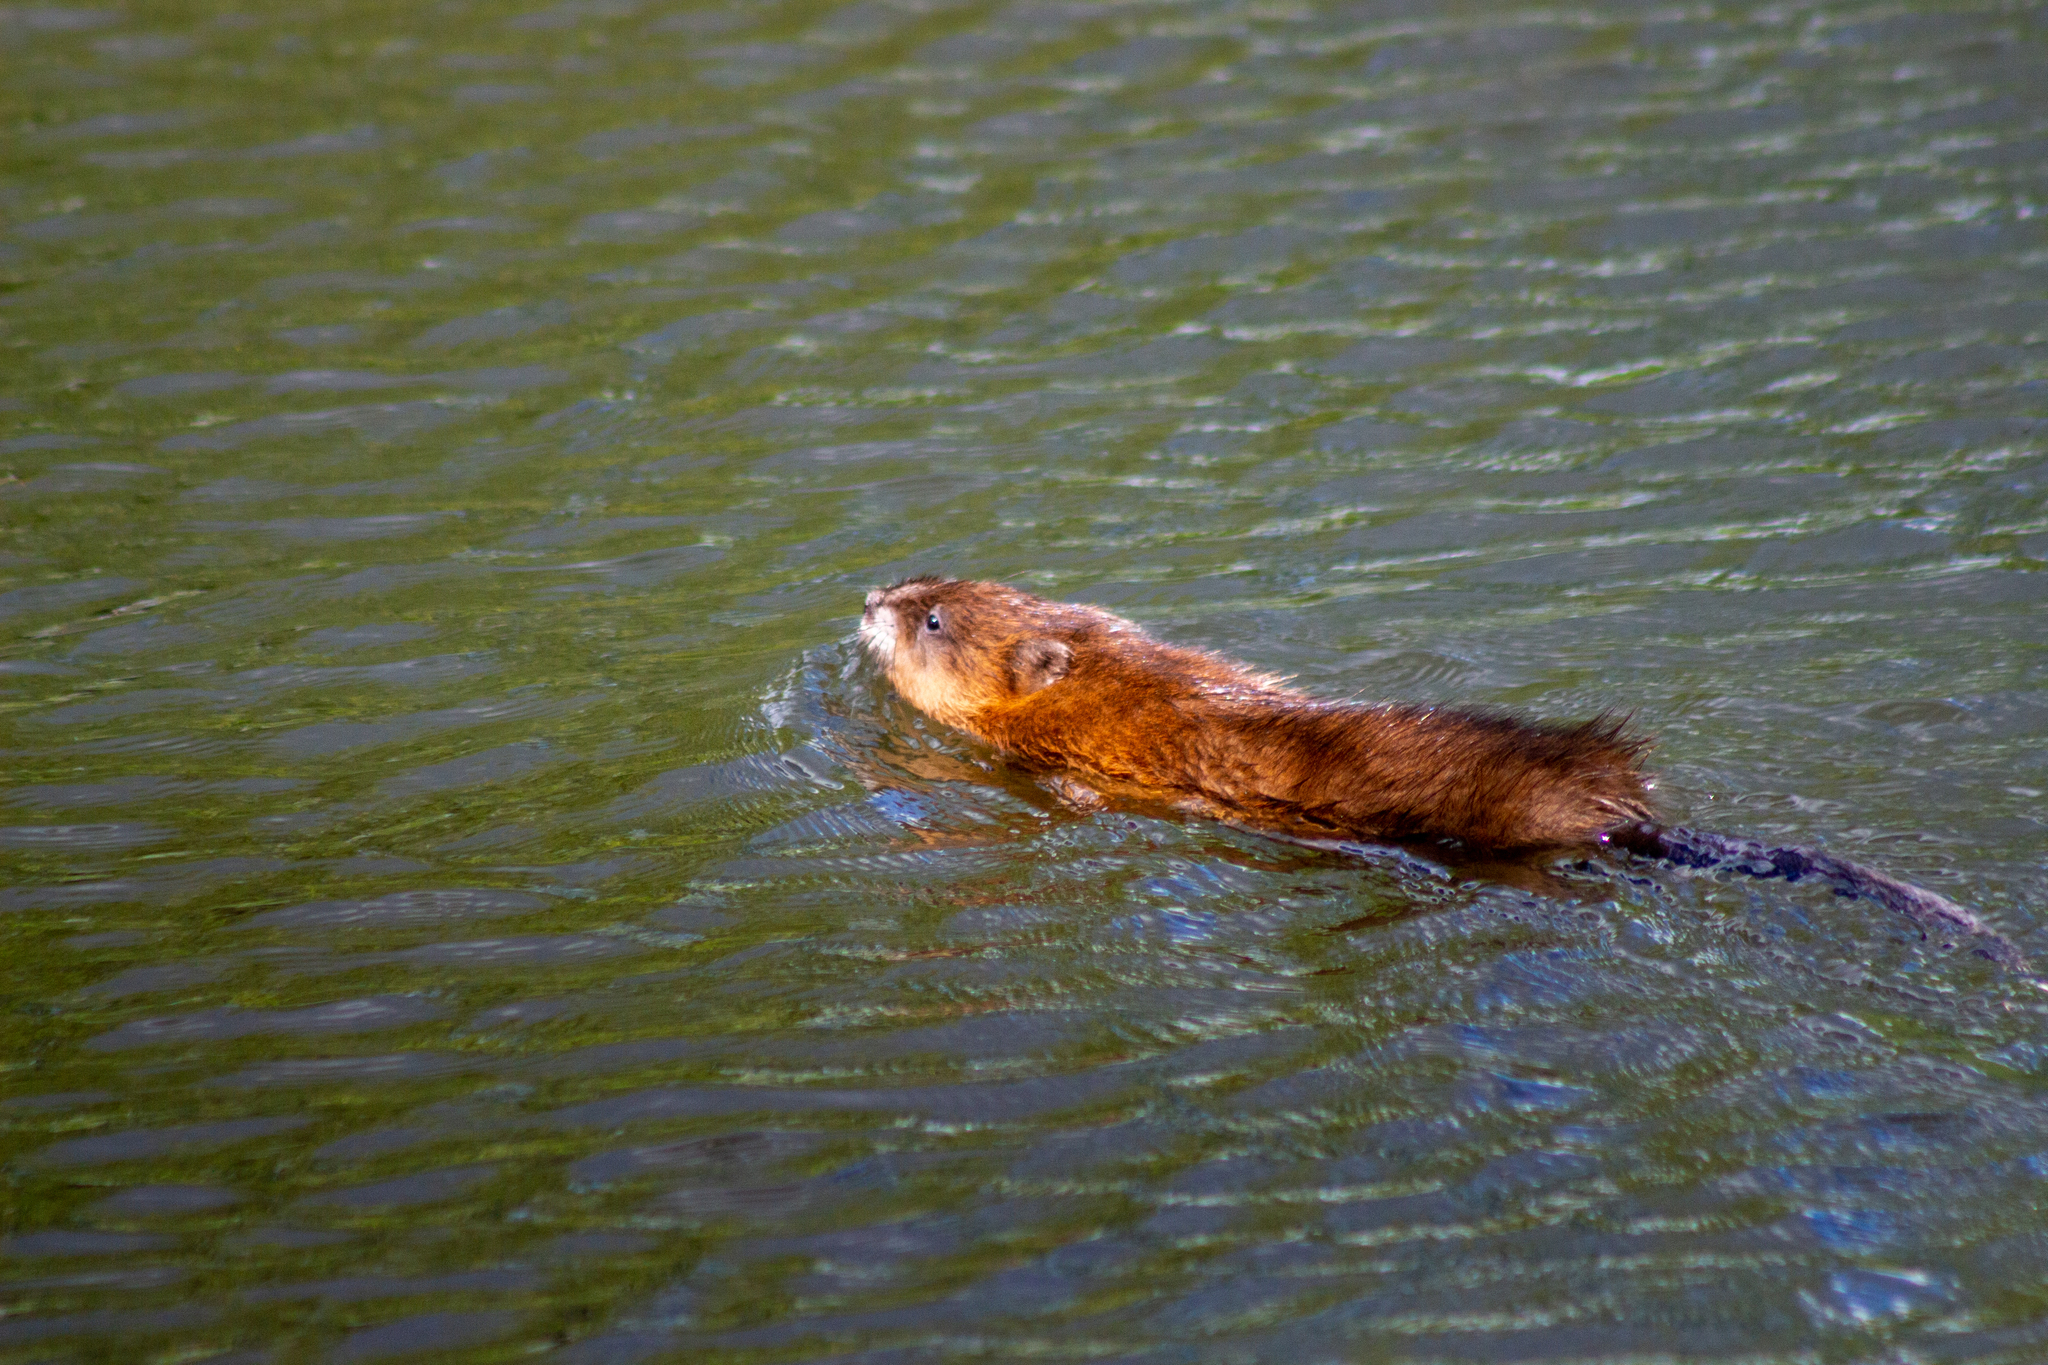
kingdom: Animalia
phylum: Chordata
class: Mammalia
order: Rodentia
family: Cricetidae
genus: Ondatra
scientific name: Ondatra zibethicus
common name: Muskrat
